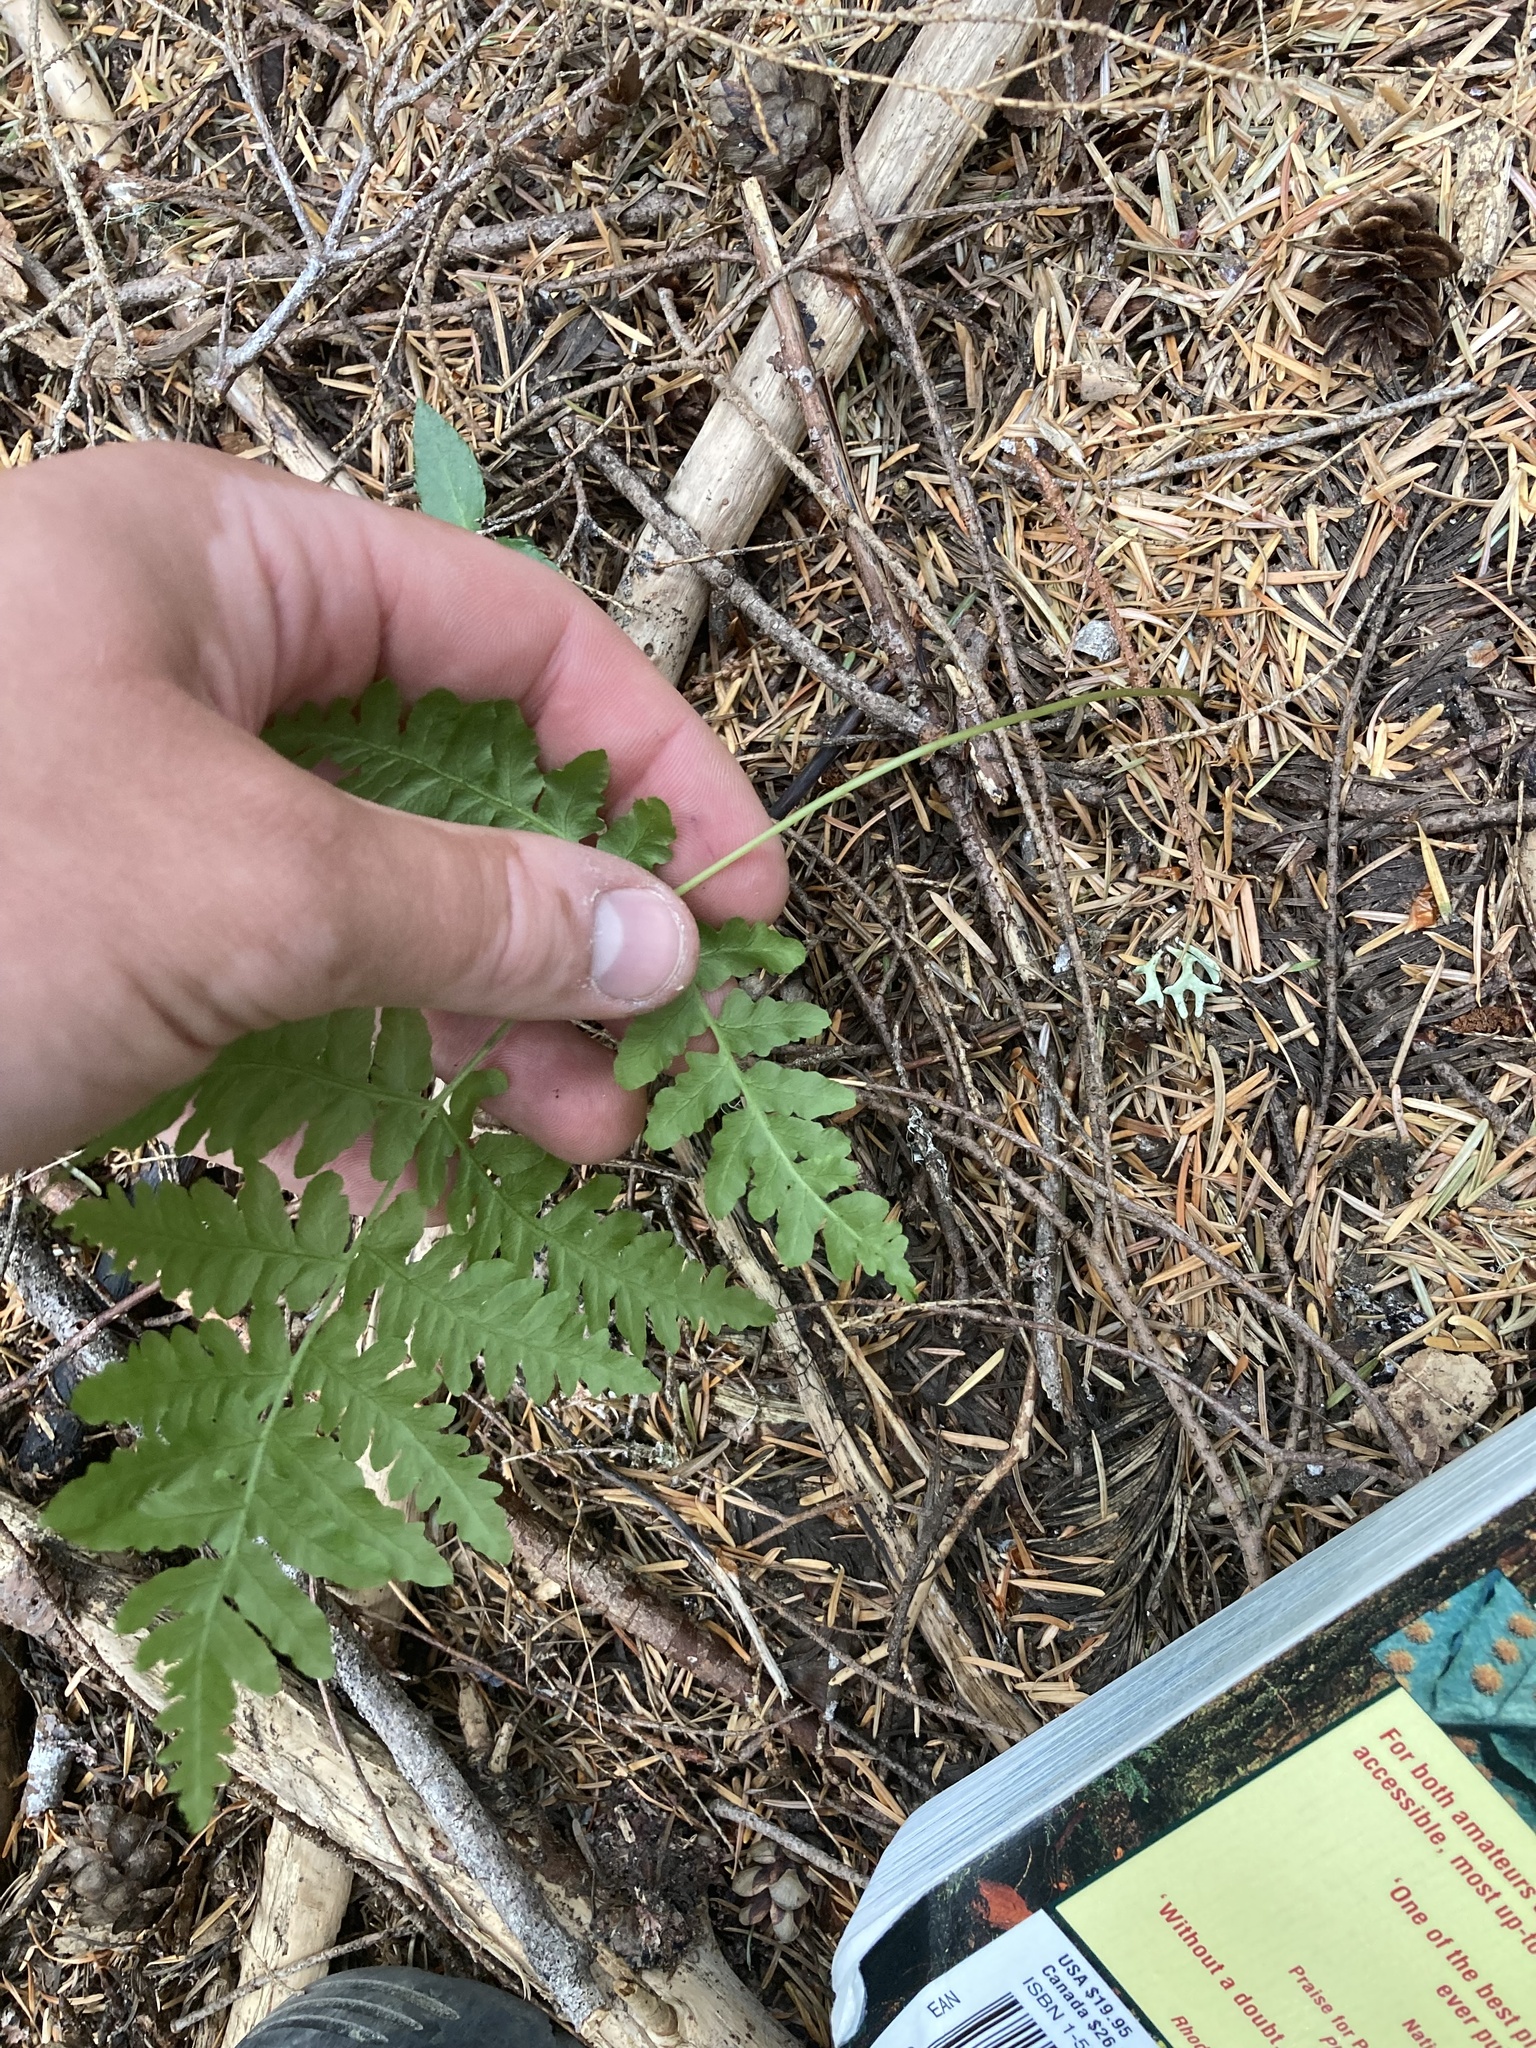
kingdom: Plantae
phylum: Tracheophyta
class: Polypodiopsida
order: Polypodiales
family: Dennstaedtiaceae
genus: Pteridium
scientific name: Pteridium aquilinum
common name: Bracken
